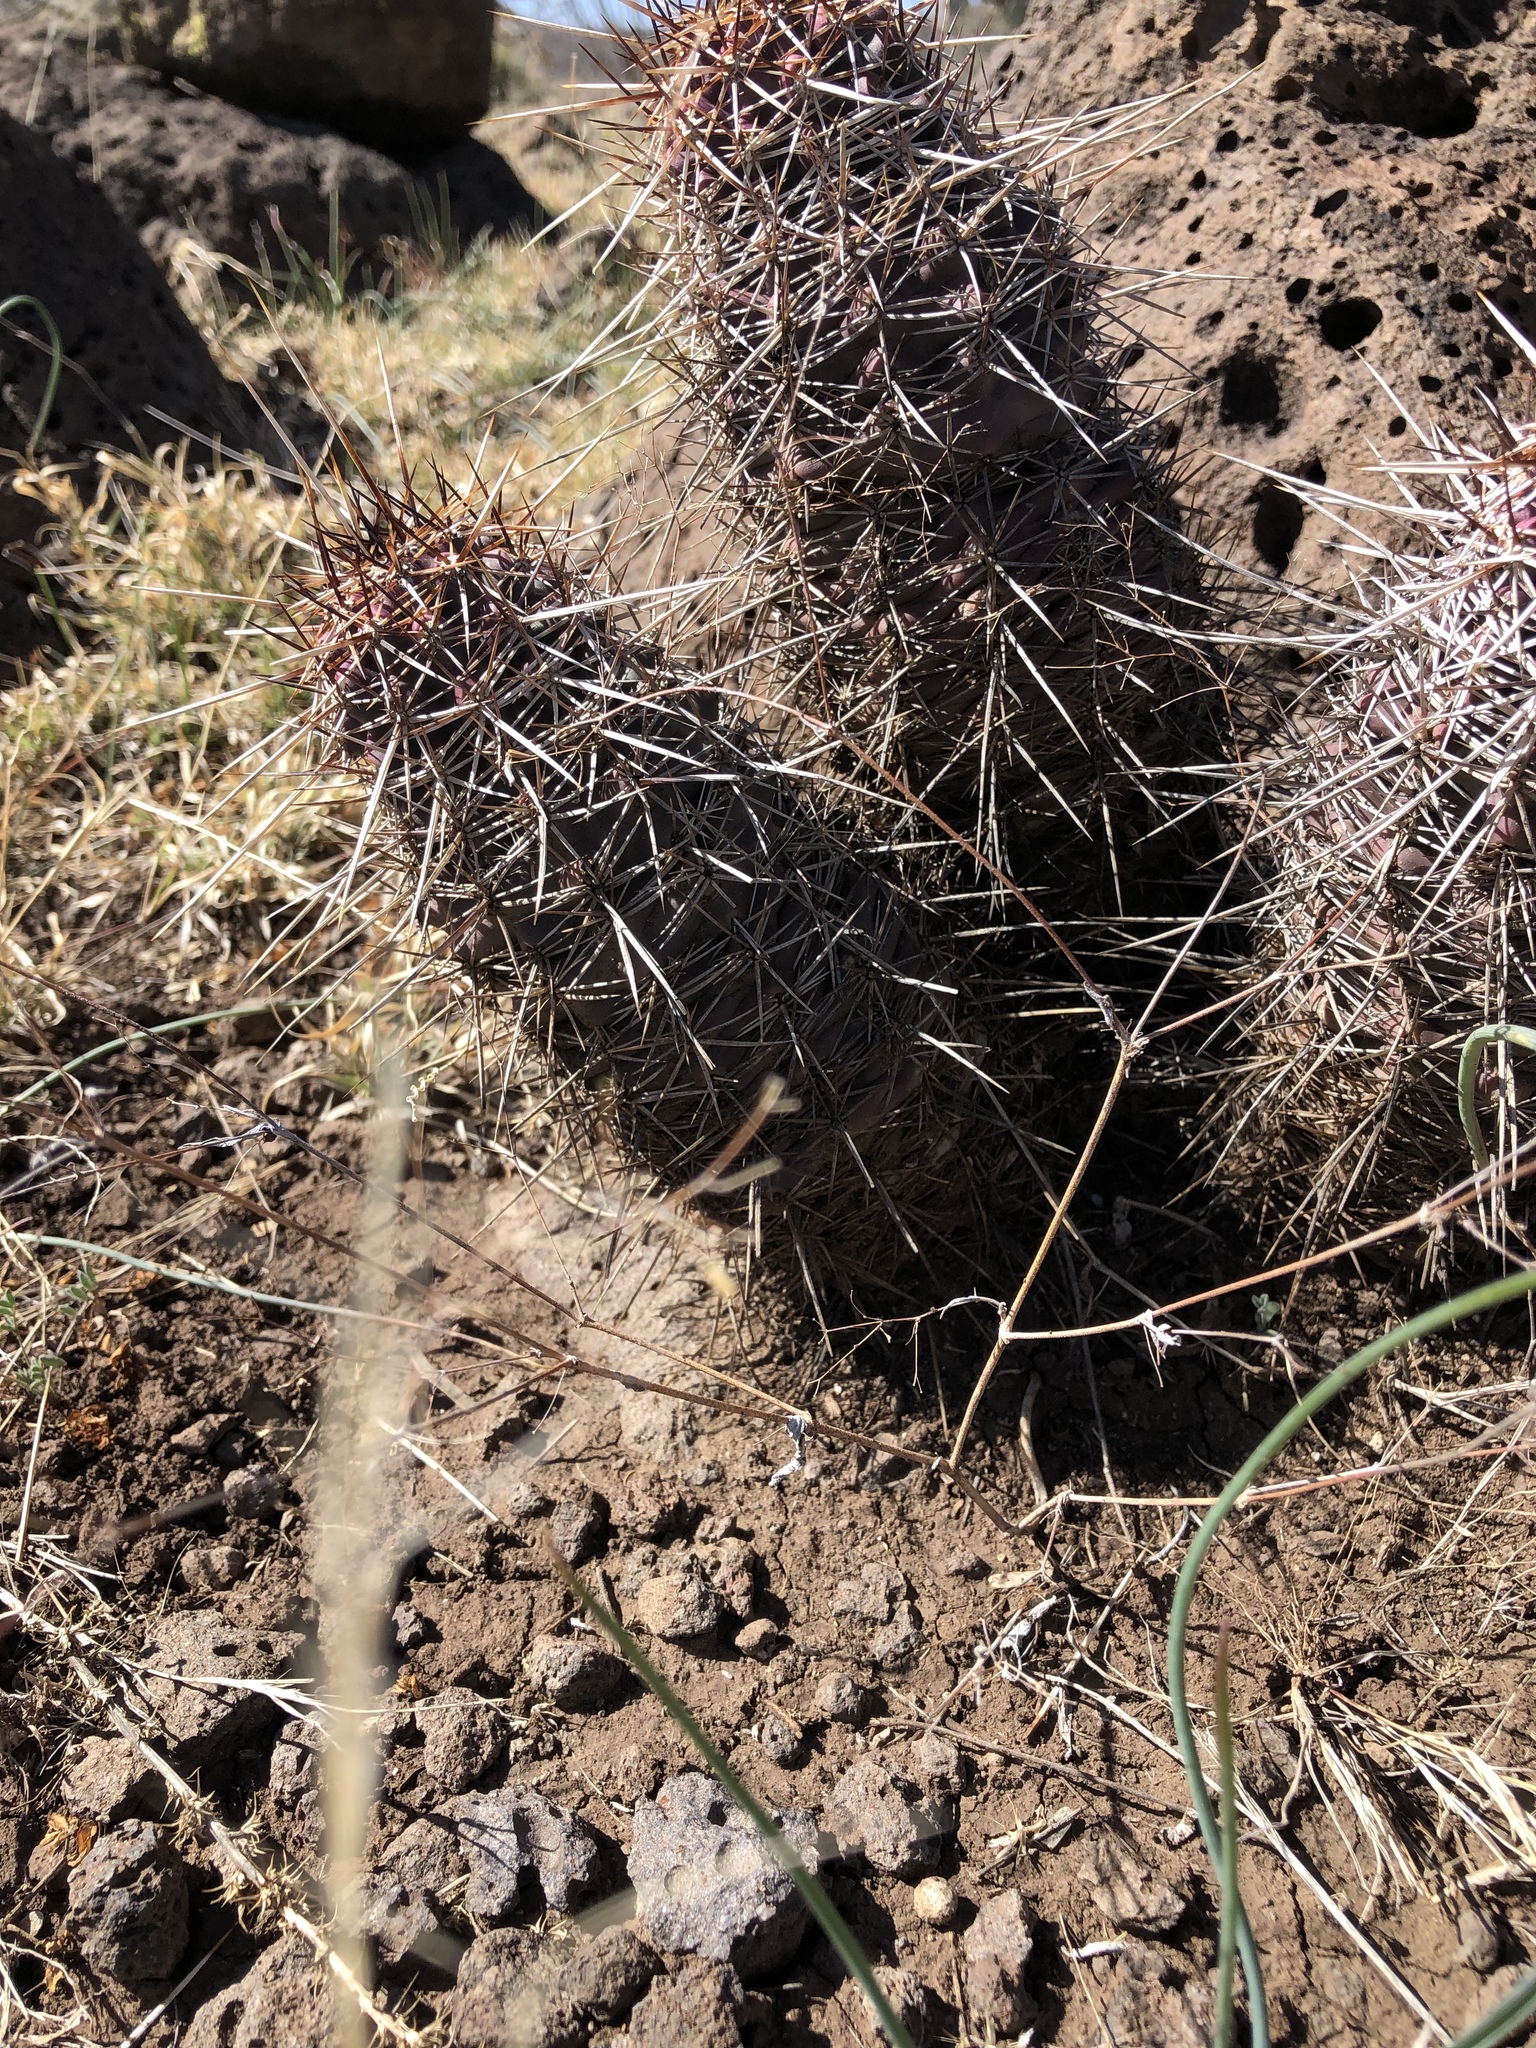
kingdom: Plantae
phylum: Tracheophyta
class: Magnoliopsida
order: Caryophyllales
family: Cactaceae
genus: Echinocereus
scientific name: Echinocereus fendleri
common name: Fendler's hedgehog cactus
